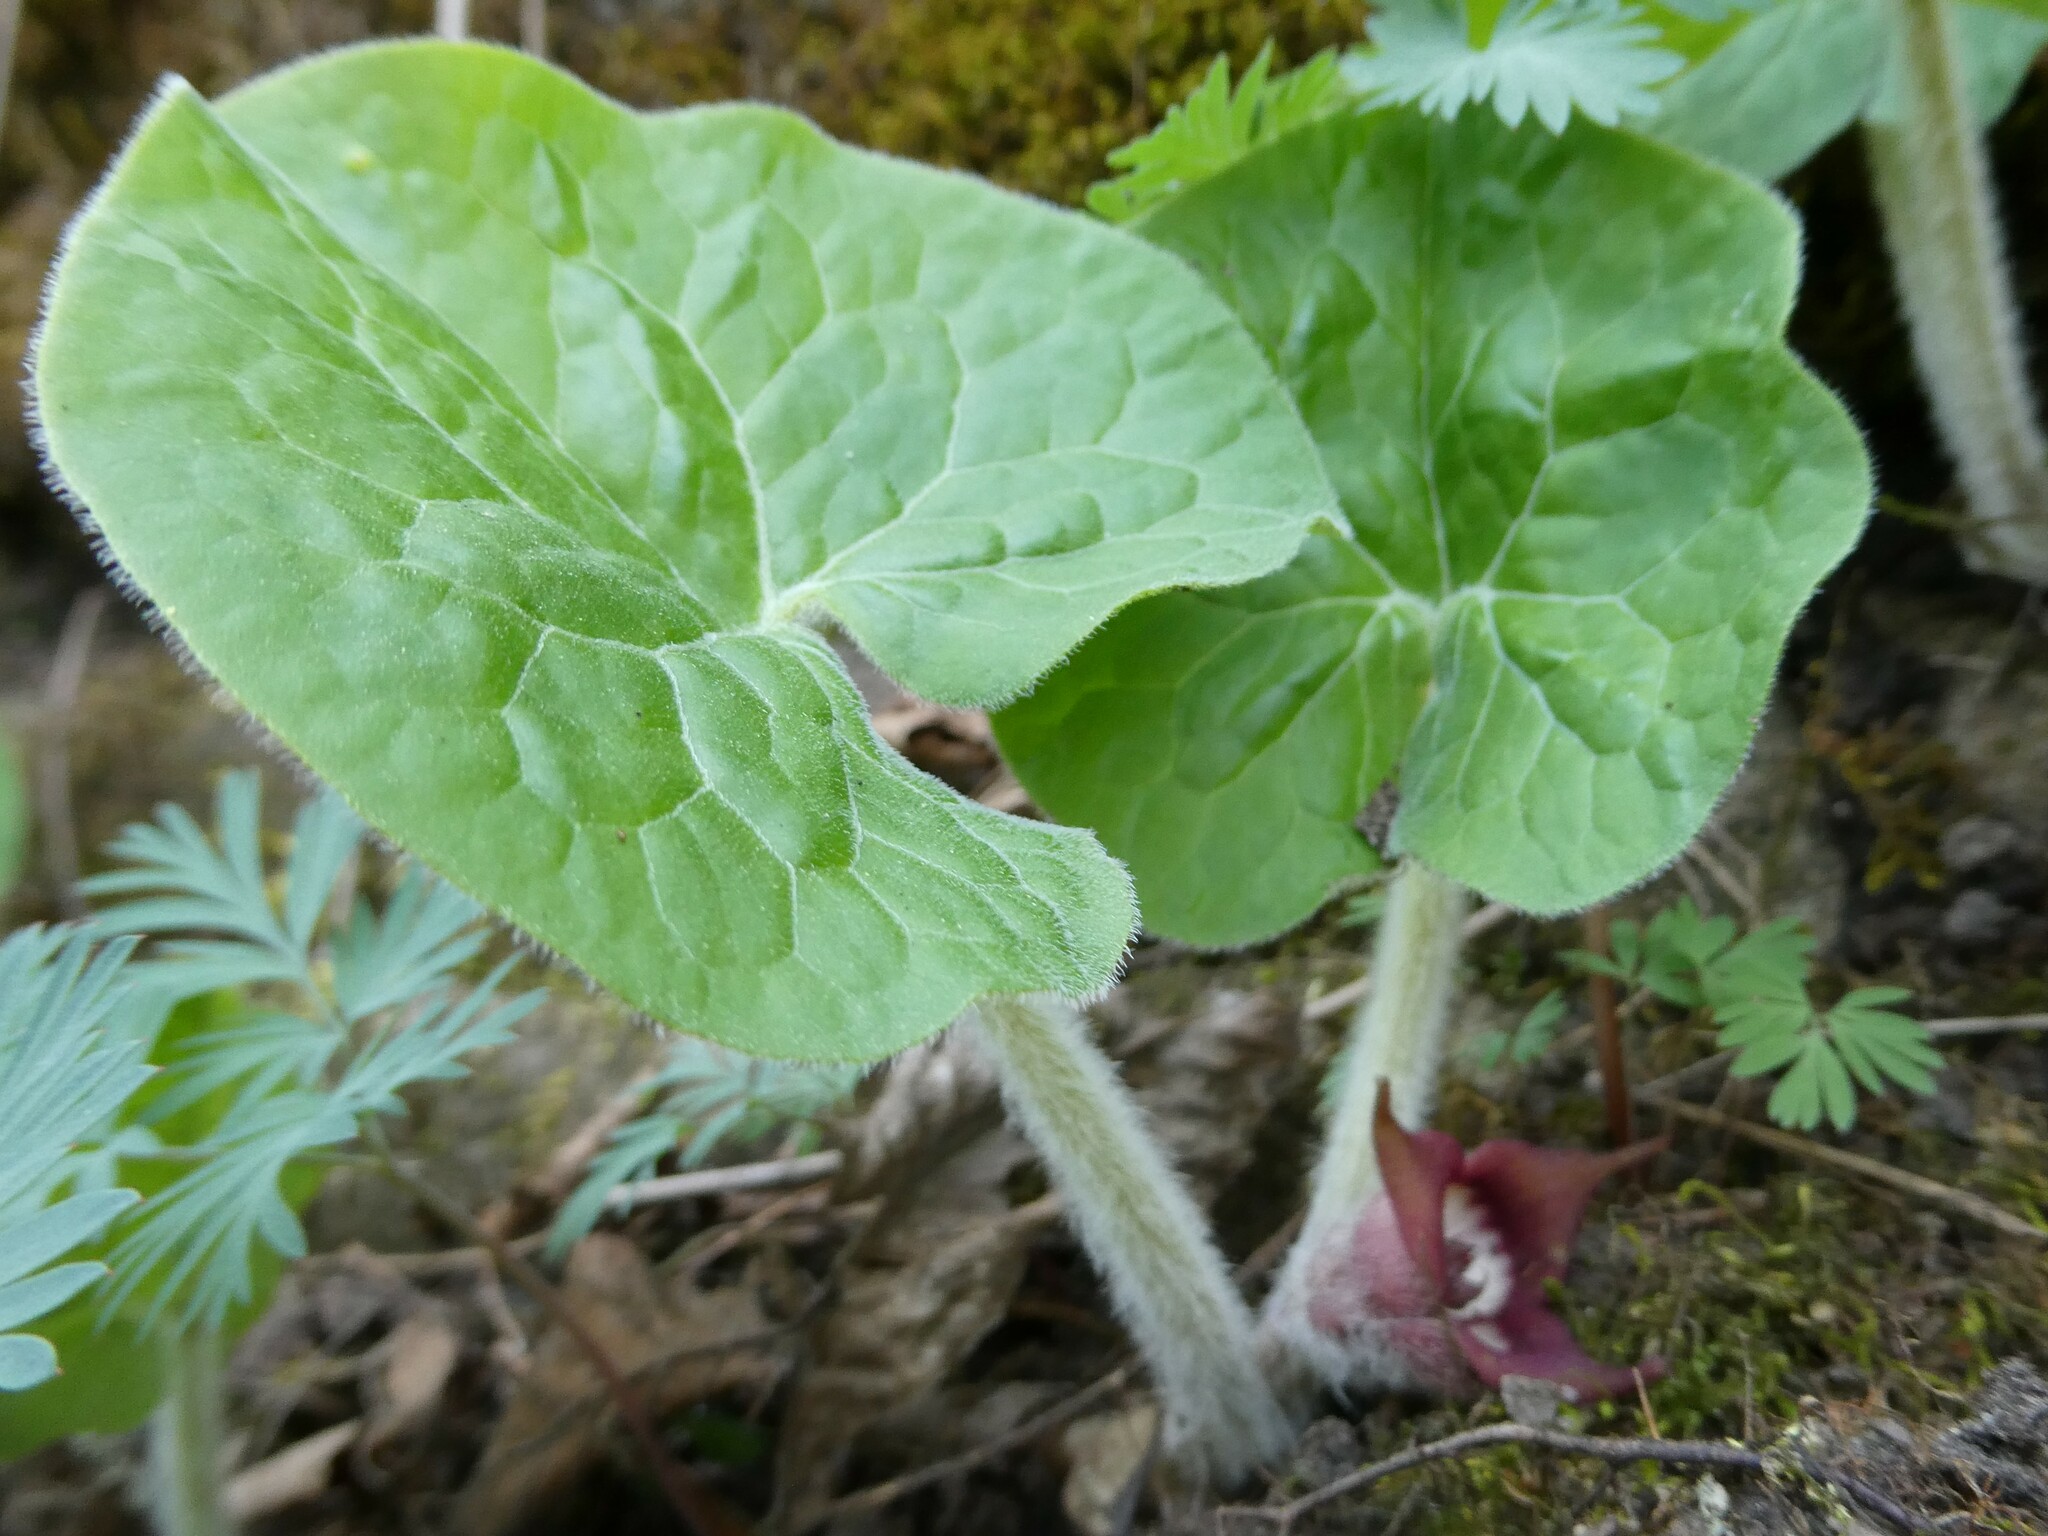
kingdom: Plantae
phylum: Tracheophyta
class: Magnoliopsida
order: Piperales
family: Aristolochiaceae
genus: Asarum
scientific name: Asarum canadense
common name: Wild ginger
